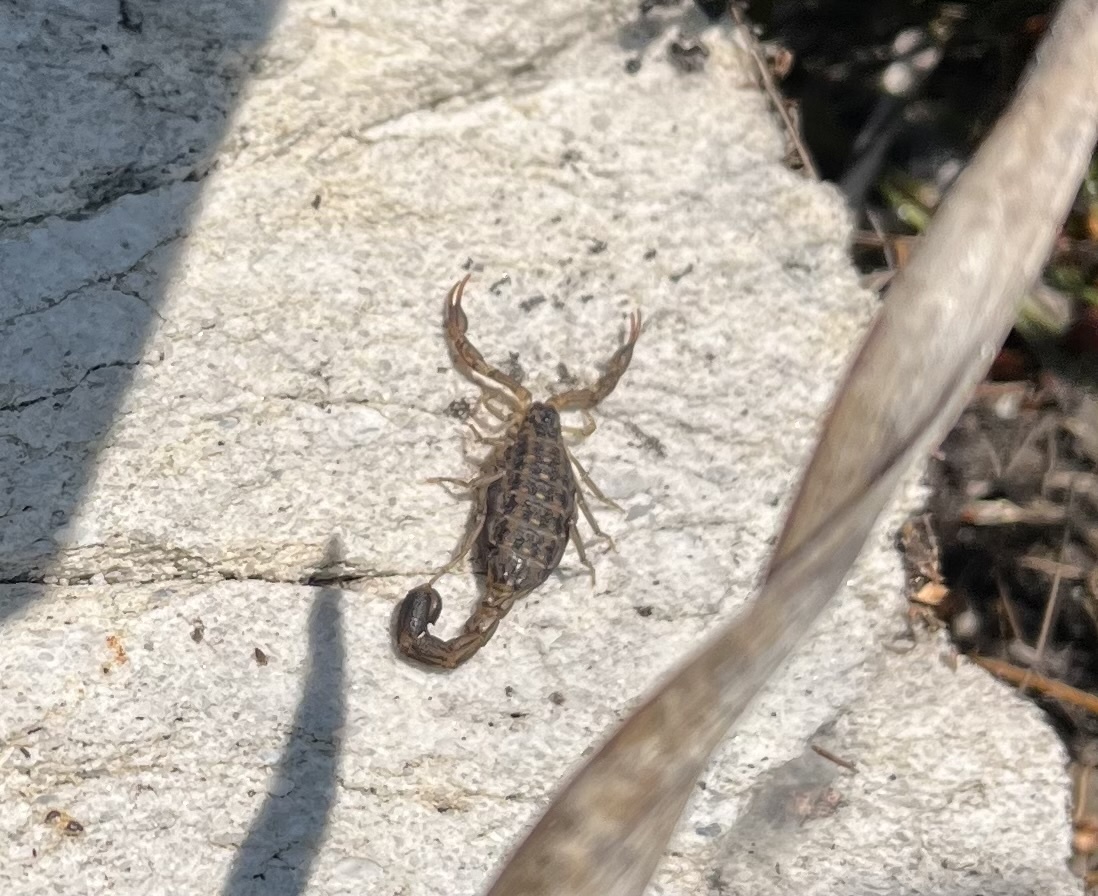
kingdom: Animalia
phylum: Arthropoda
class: Arachnida
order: Scorpiones
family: Buthidae
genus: Uroplectes
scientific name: Uroplectes lineatus
